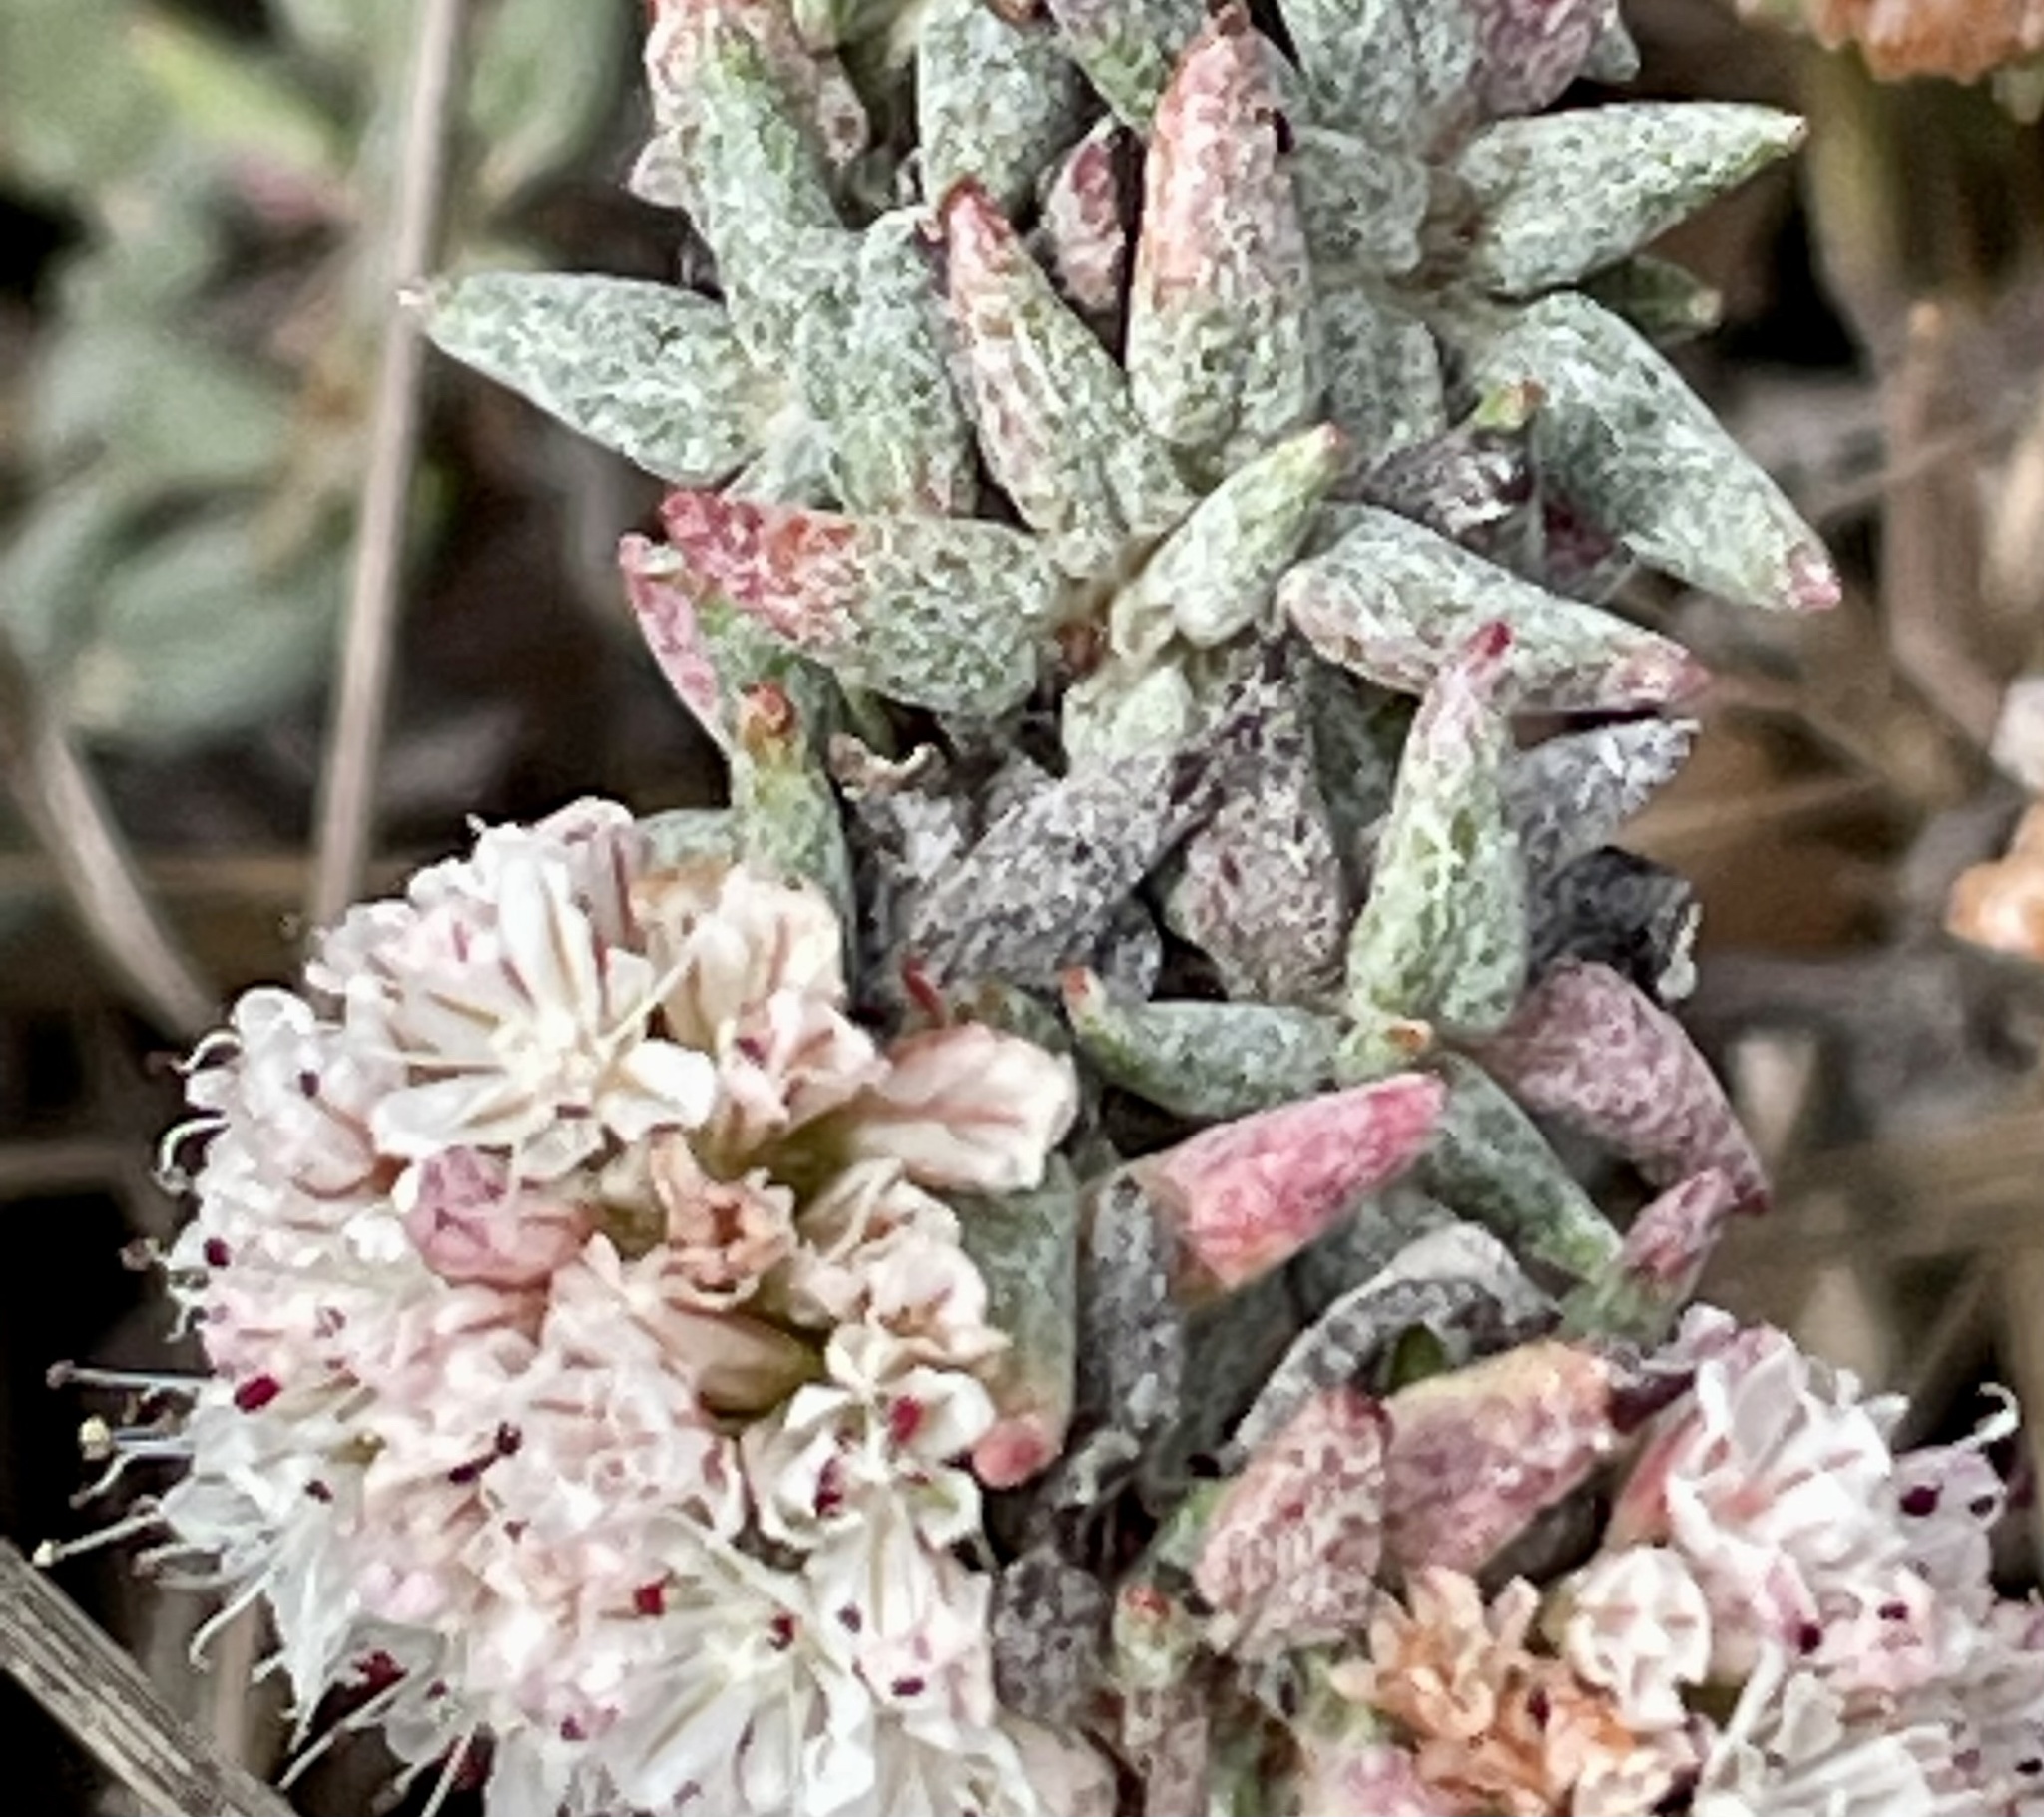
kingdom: Plantae
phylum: Tracheophyta
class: Magnoliopsida
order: Caryophyllales
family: Polygonaceae
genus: Eriogonum
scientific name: Eriogonum parvifolium
